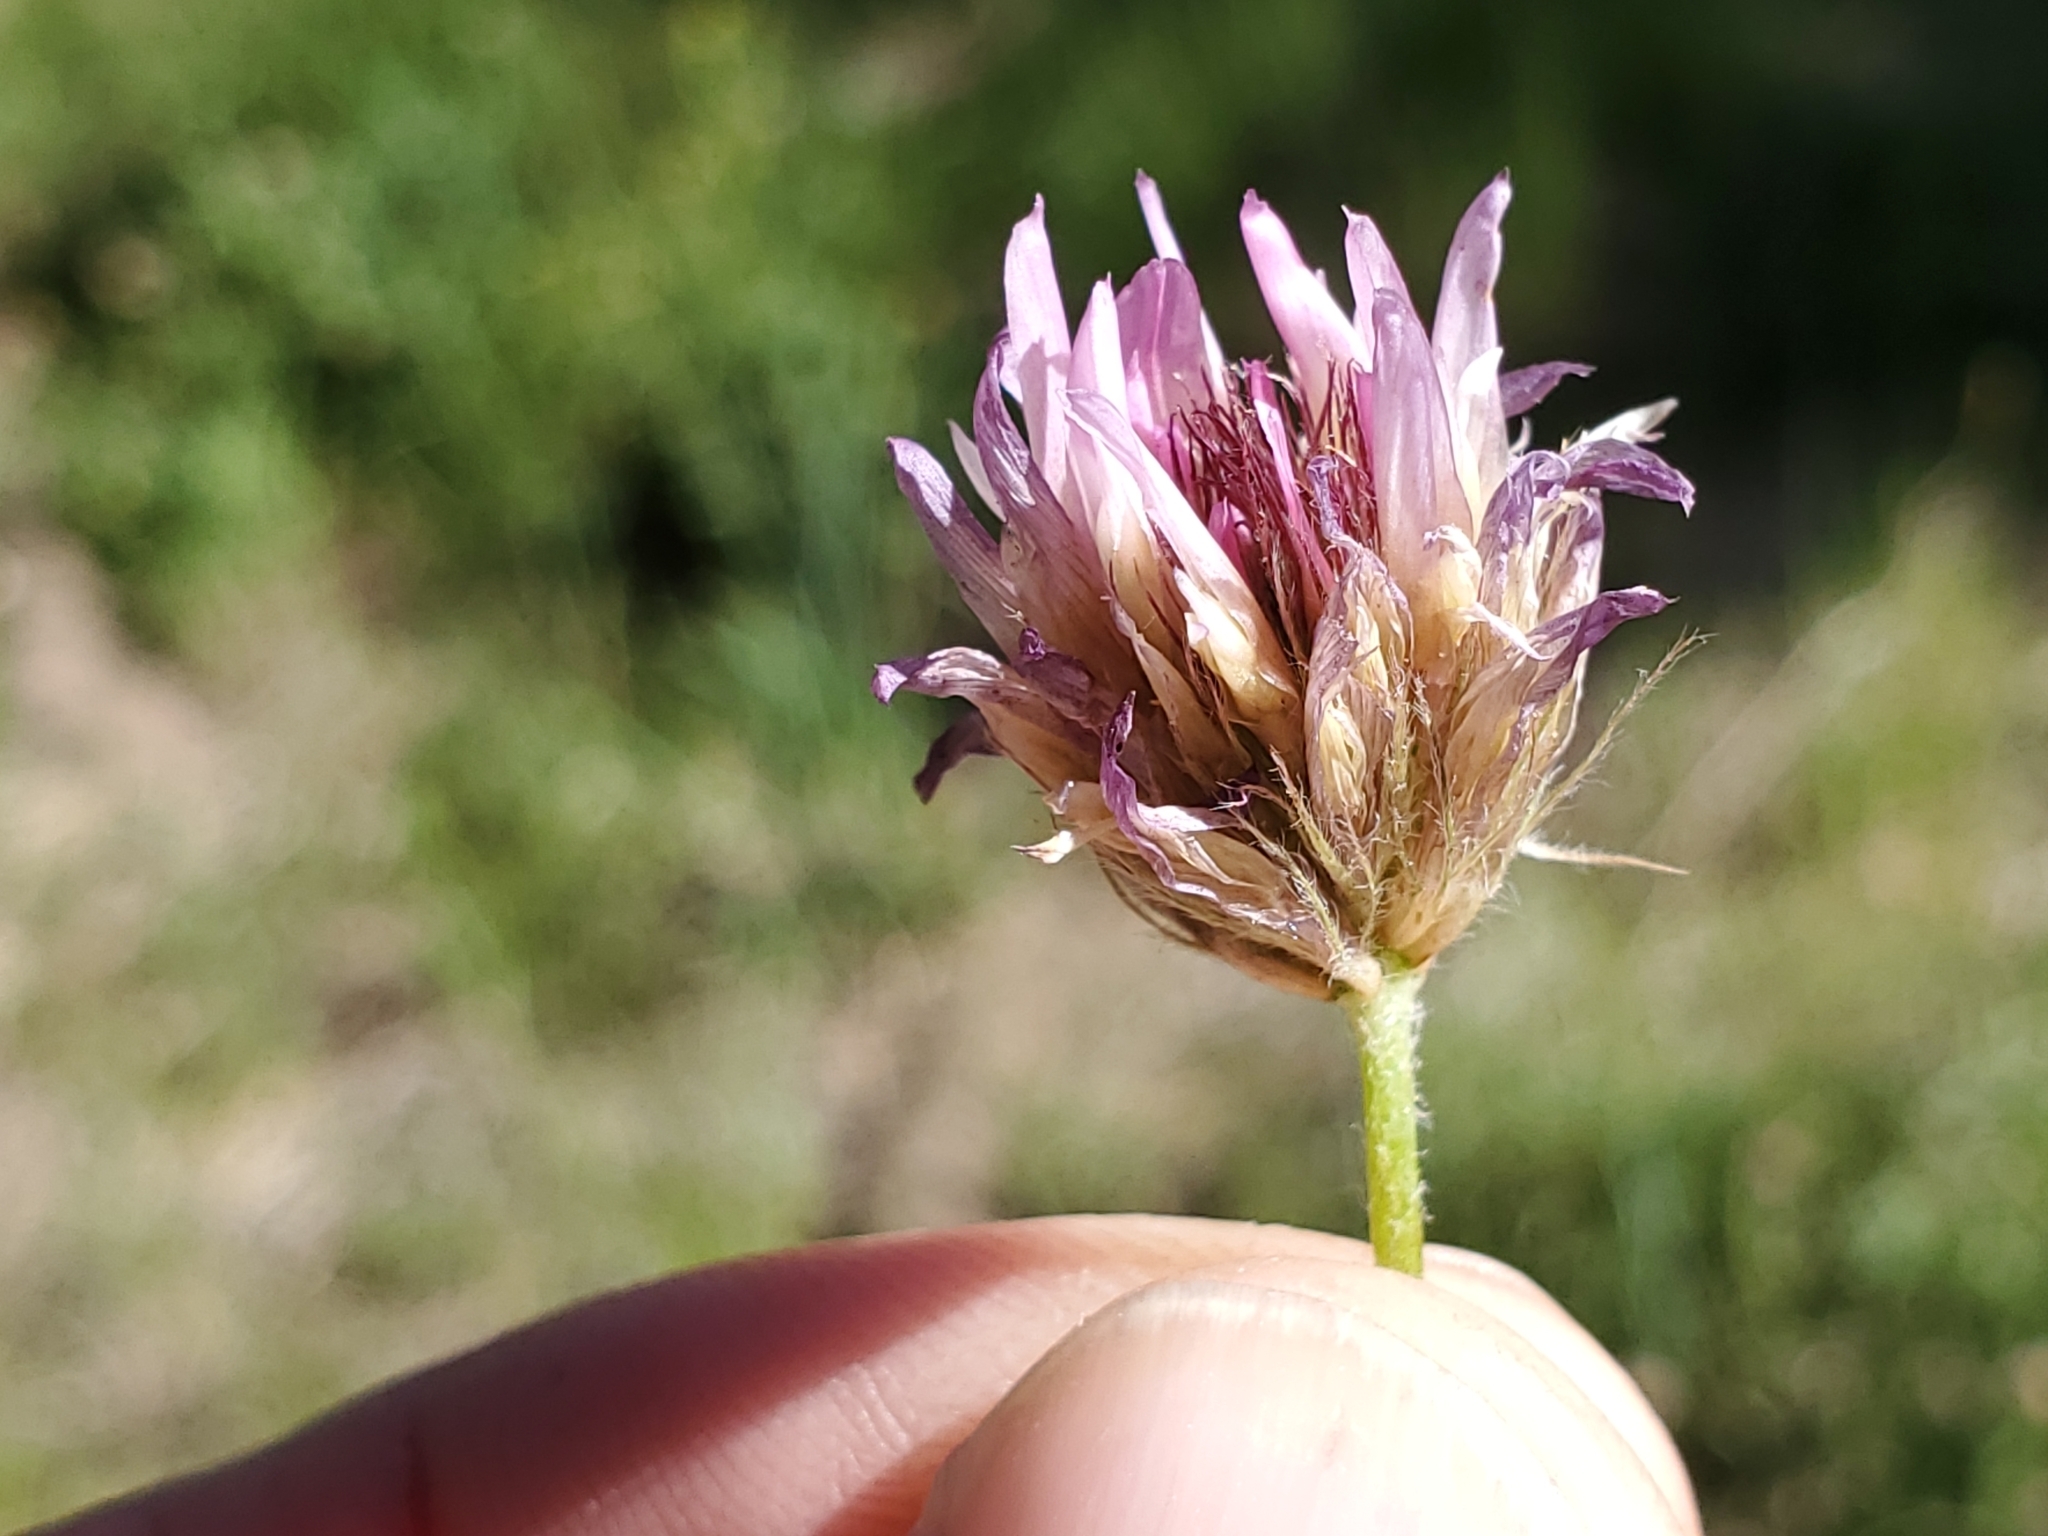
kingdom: Plantae
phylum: Tracheophyta
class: Magnoliopsida
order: Fabales
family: Fabaceae
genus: Trifolium
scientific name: Trifolium longipes
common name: Long-stalk clover
